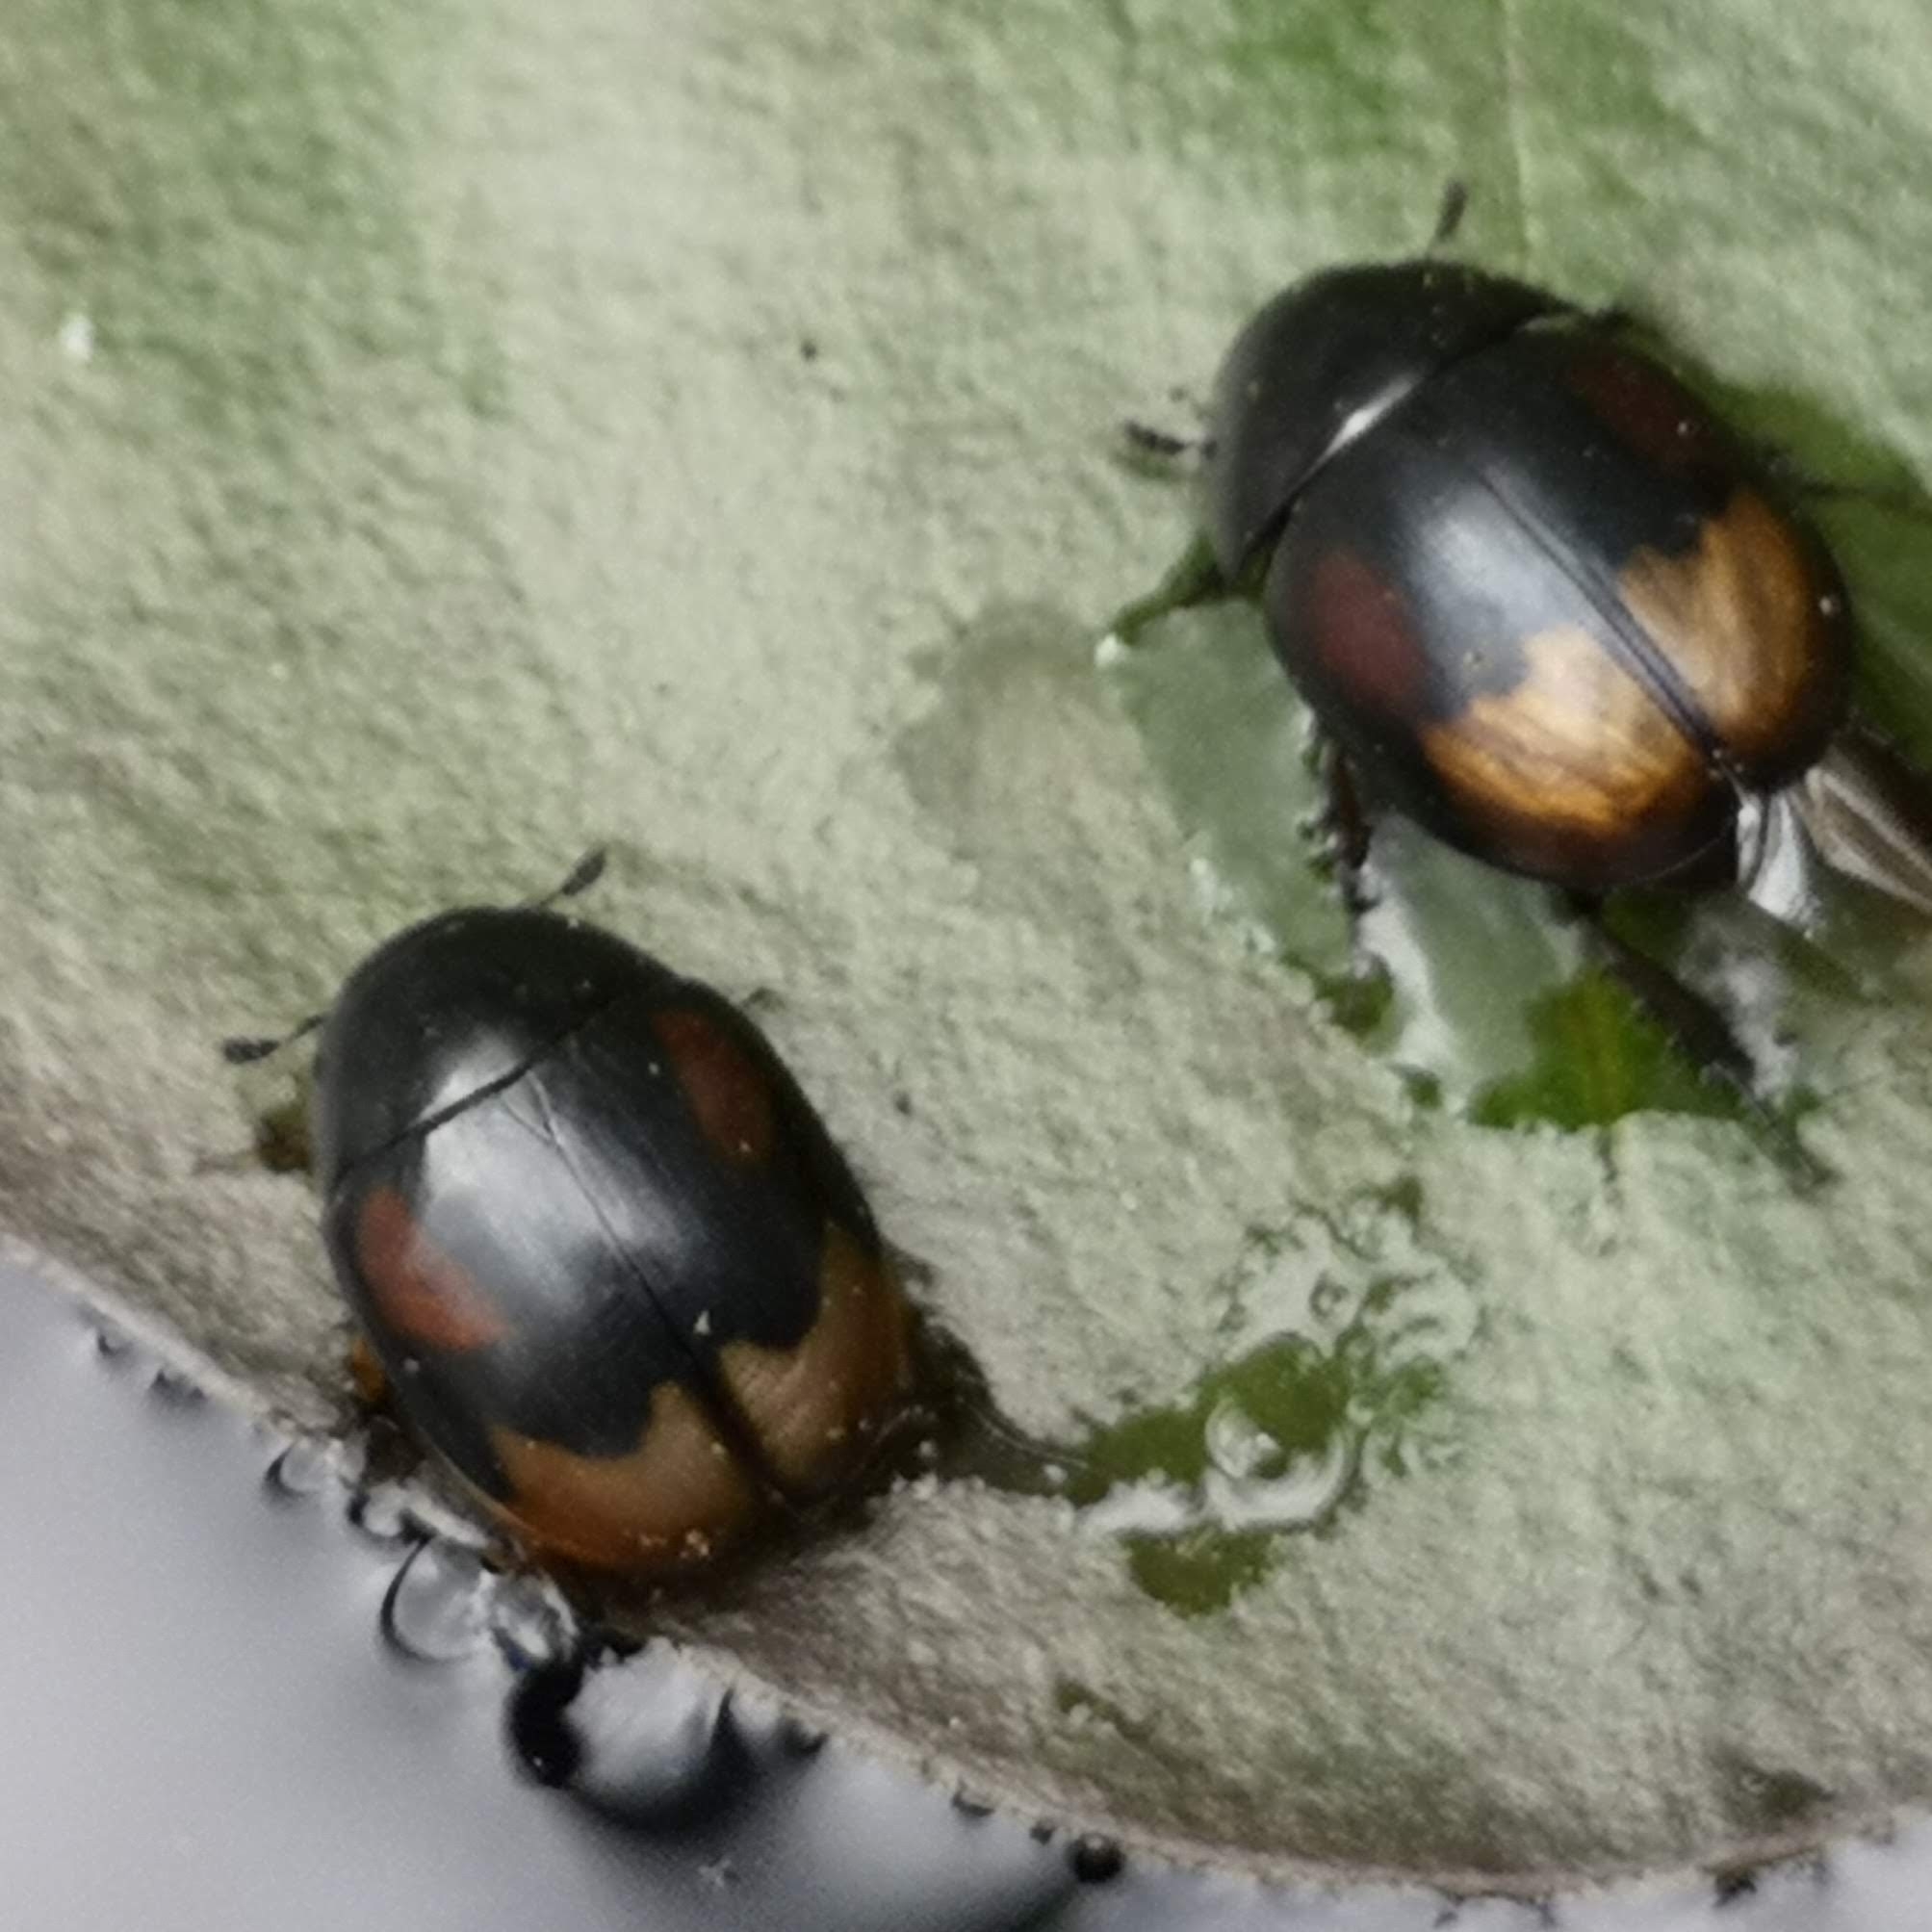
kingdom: Animalia
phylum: Arthropoda
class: Insecta
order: Coleoptera
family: Hydrophilidae
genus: Sphaeridium
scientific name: Sphaeridium lunatum
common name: Water scavenger beetle
